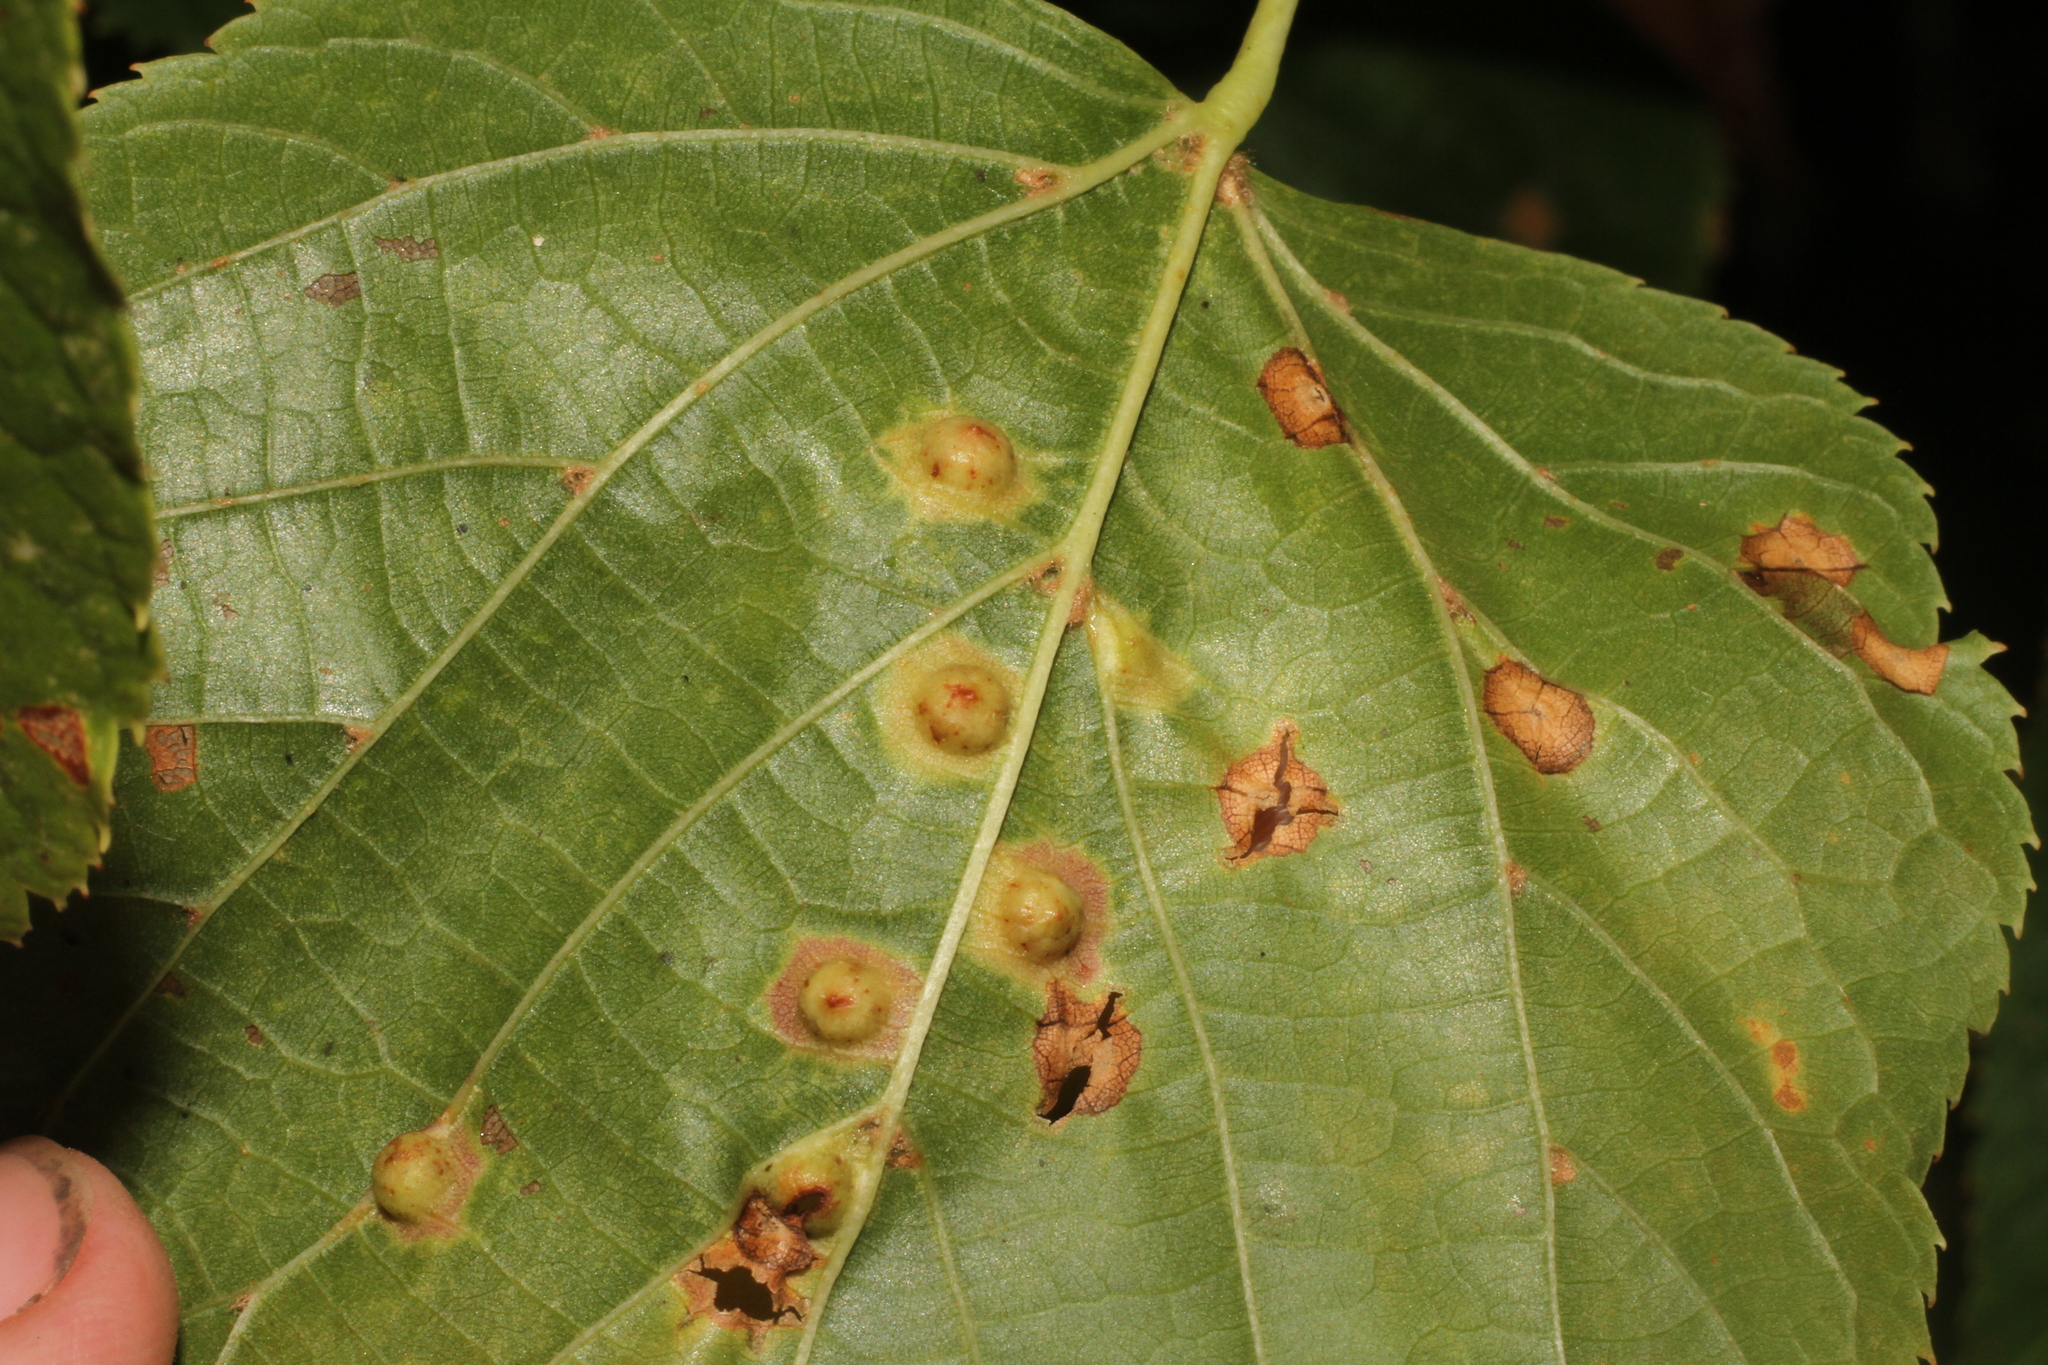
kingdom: Animalia
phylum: Arthropoda
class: Insecta
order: Diptera
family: Cecidomyiidae
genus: Didymomyia
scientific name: Didymomyia tiliacea
